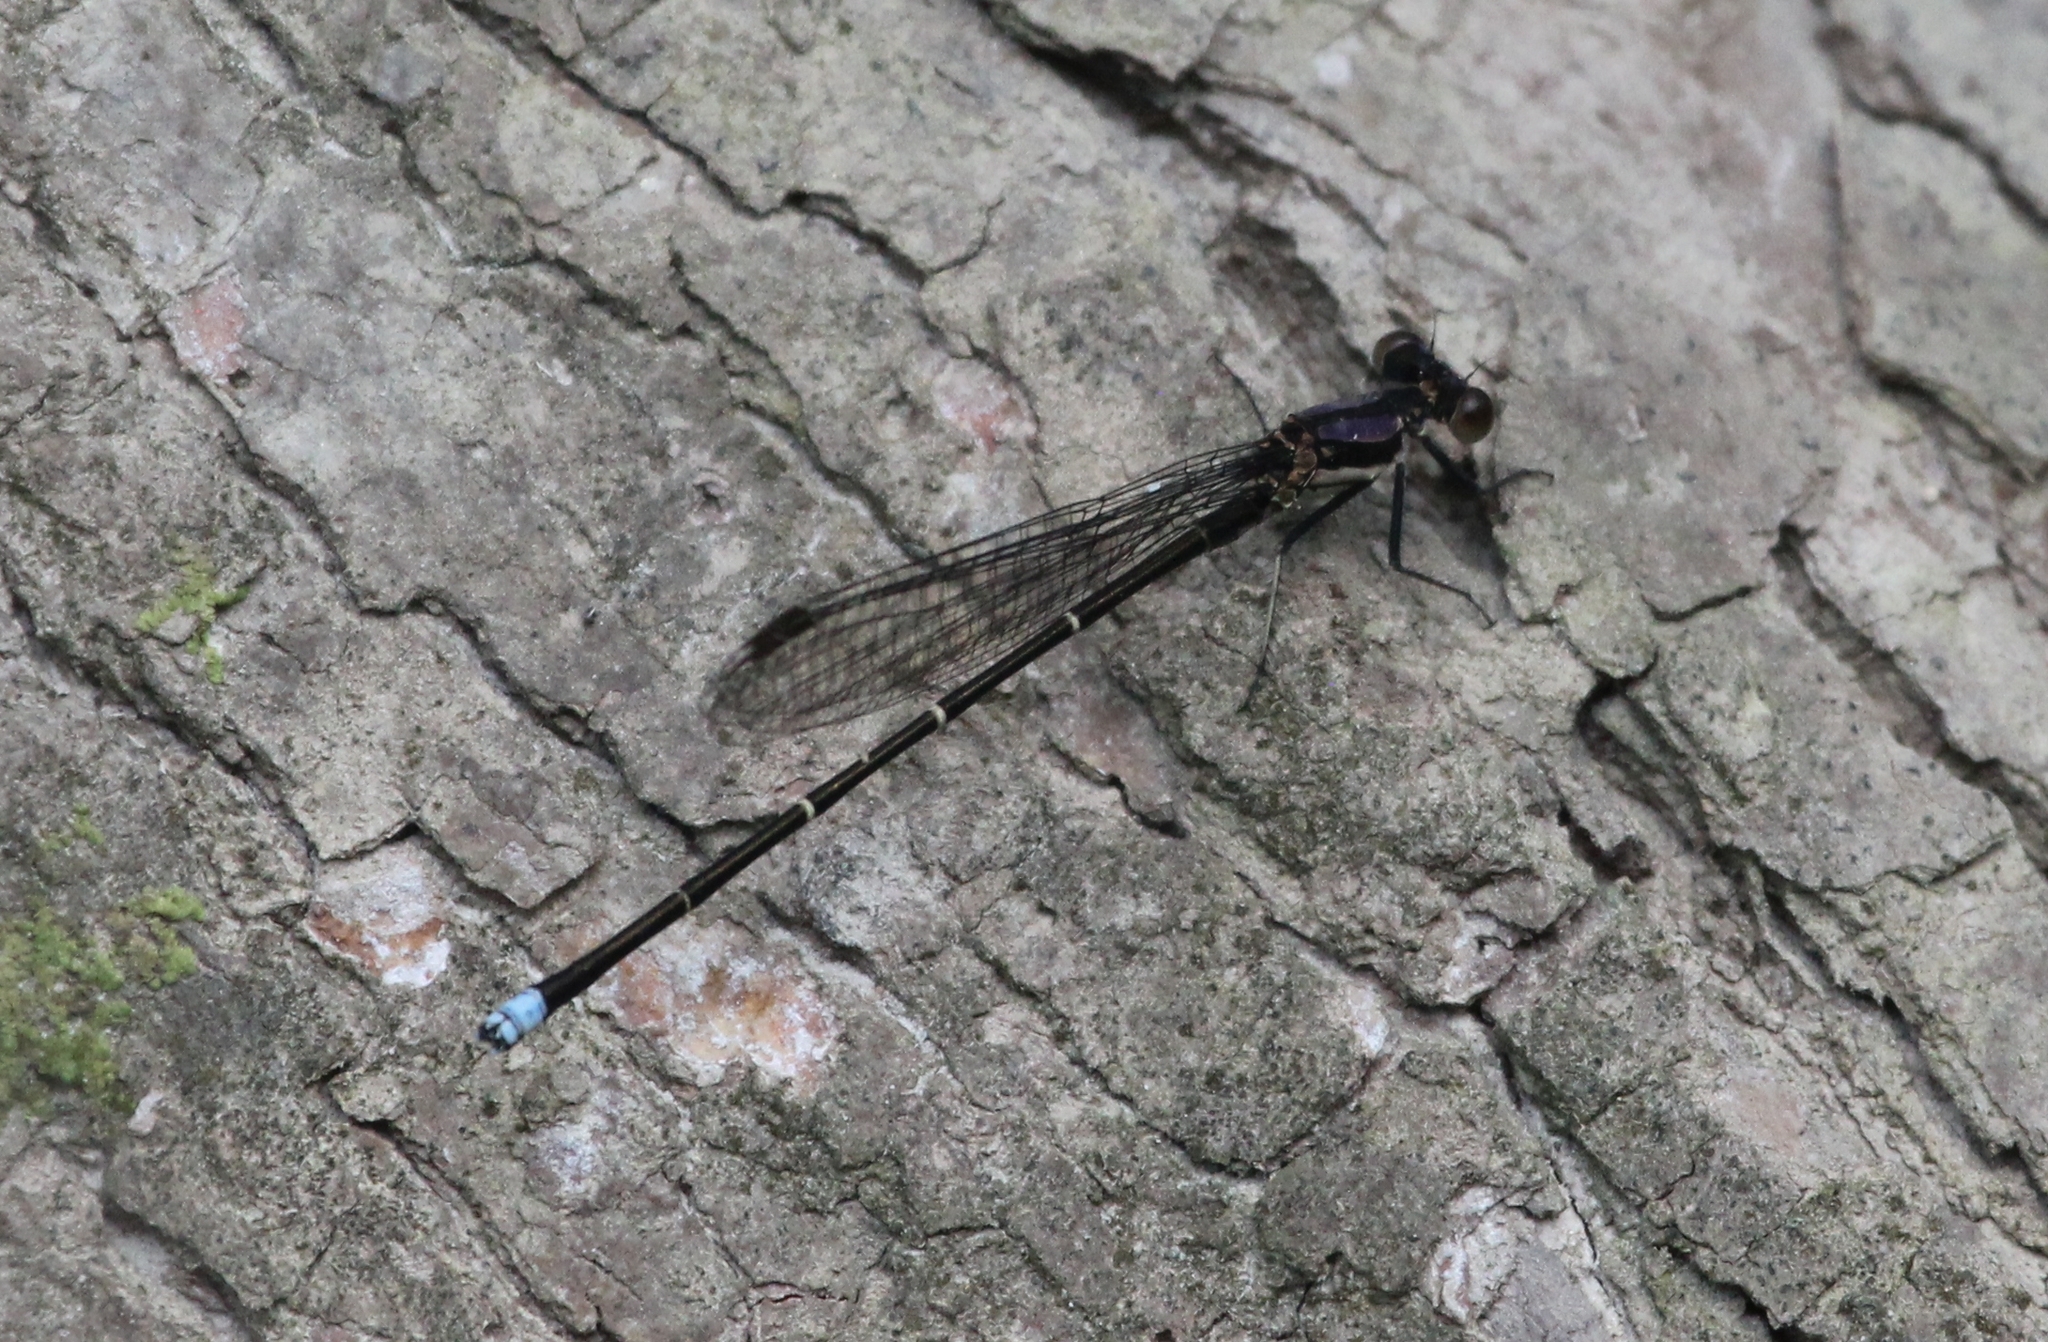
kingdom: Animalia
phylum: Arthropoda
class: Insecta
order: Odonata
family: Coenagrionidae
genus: Argia
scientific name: Argia tibialis
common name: Blue-tipped dancer
